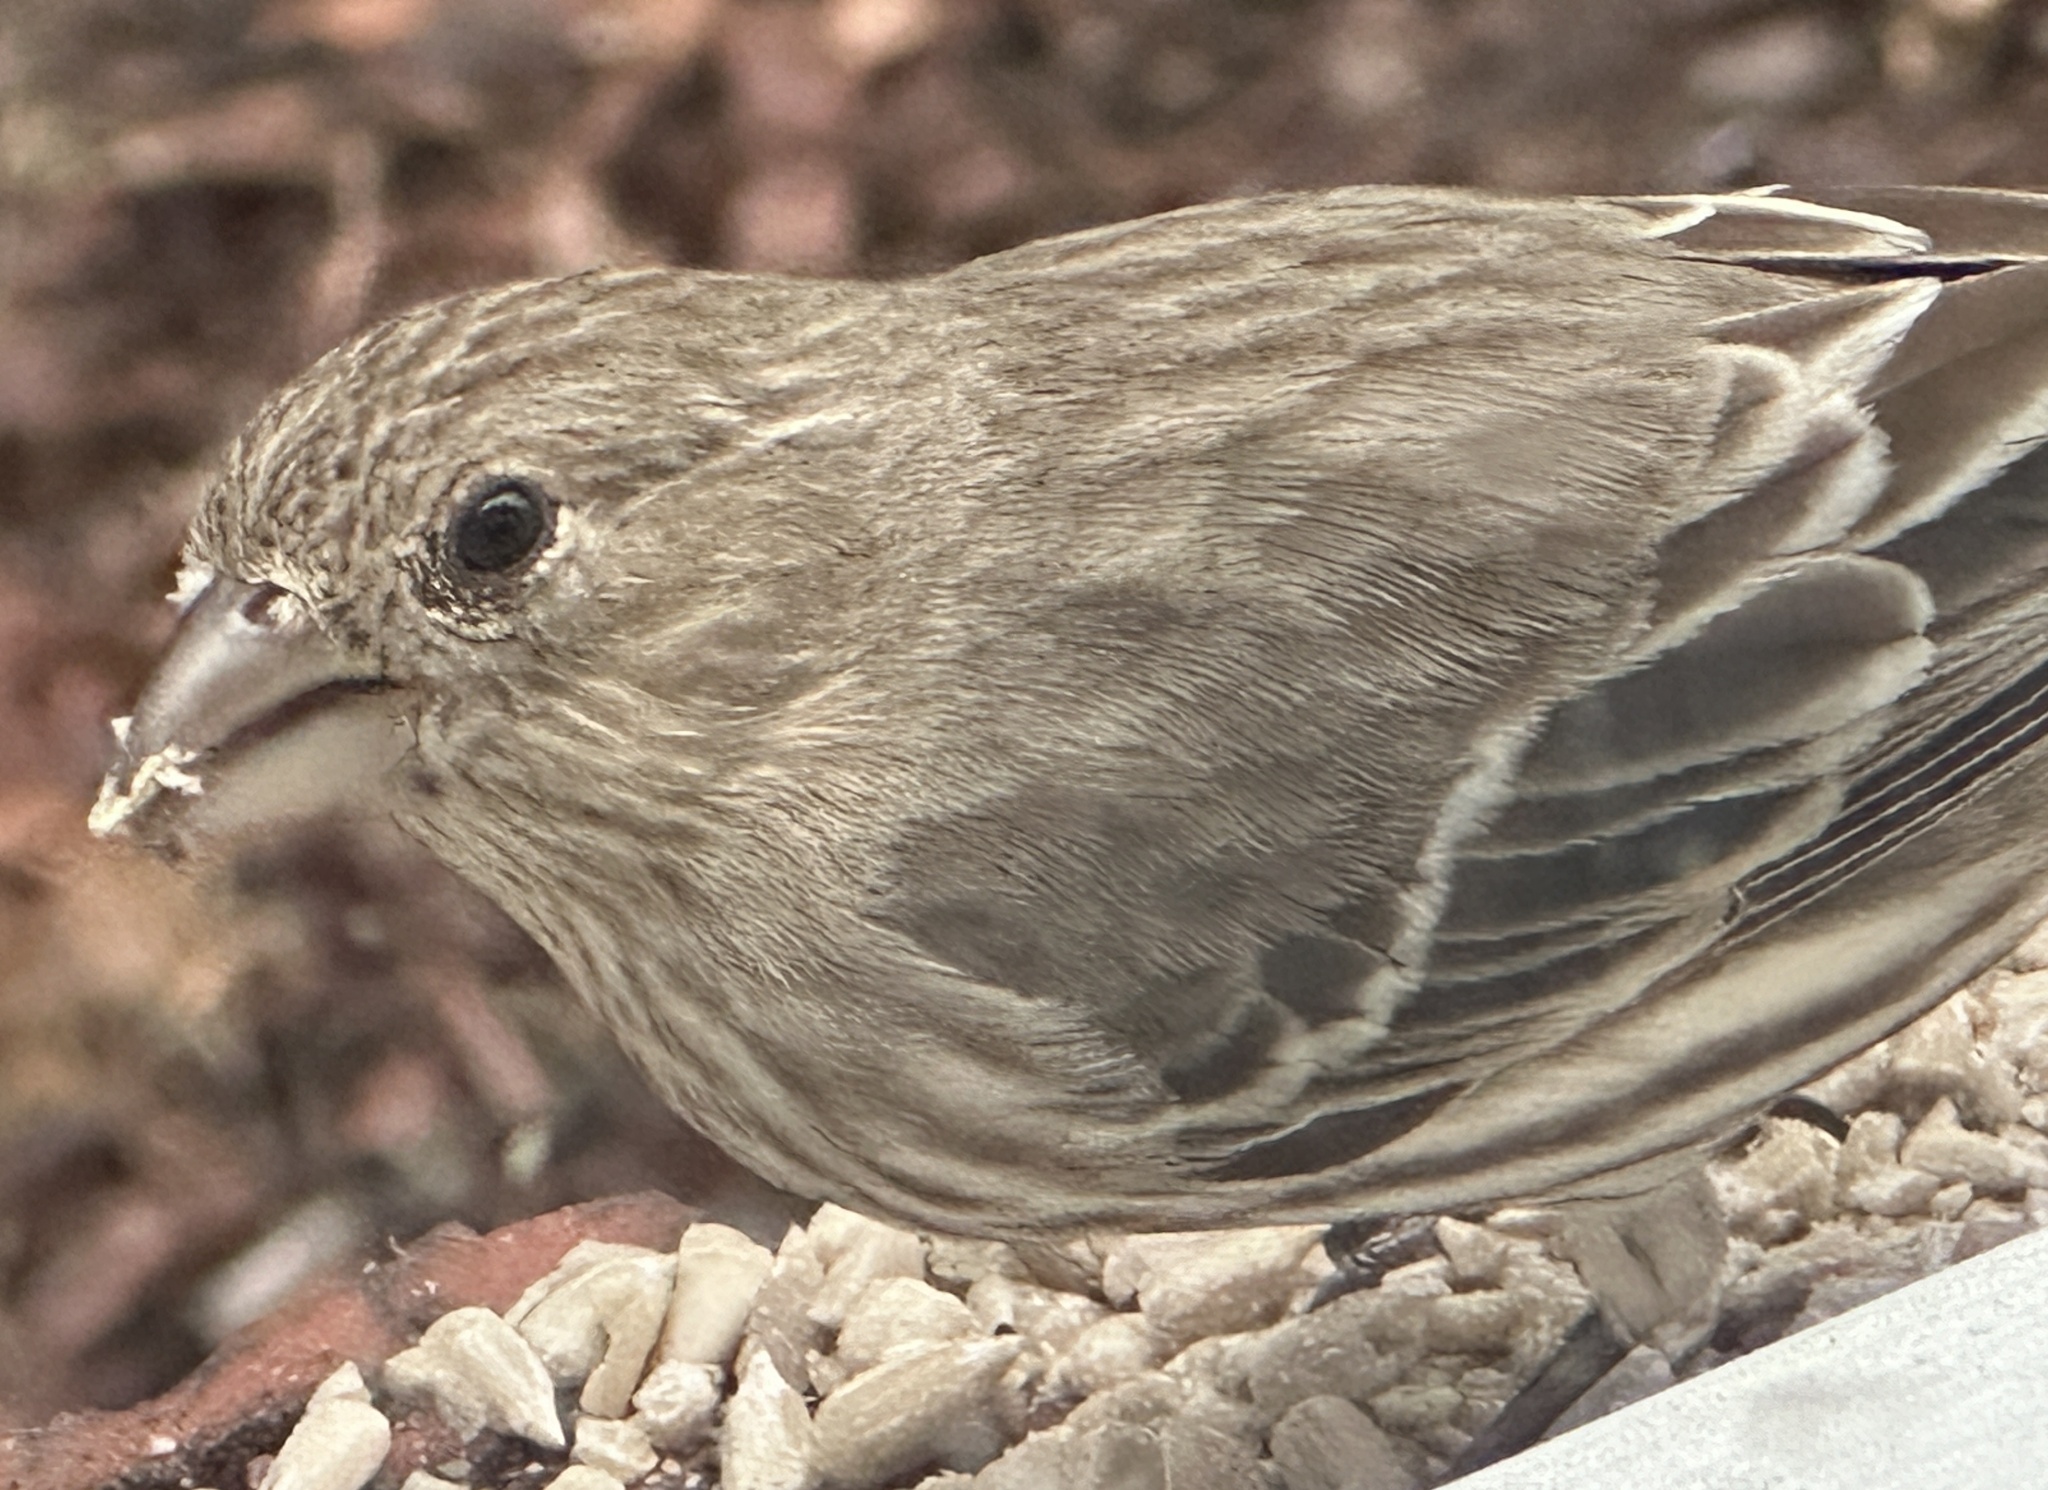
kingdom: Animalia
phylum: Chordata
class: Aves
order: Passeriformes
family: Fringillidae
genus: Haemorhous
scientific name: Haemorhous mexicanus
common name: House finch
